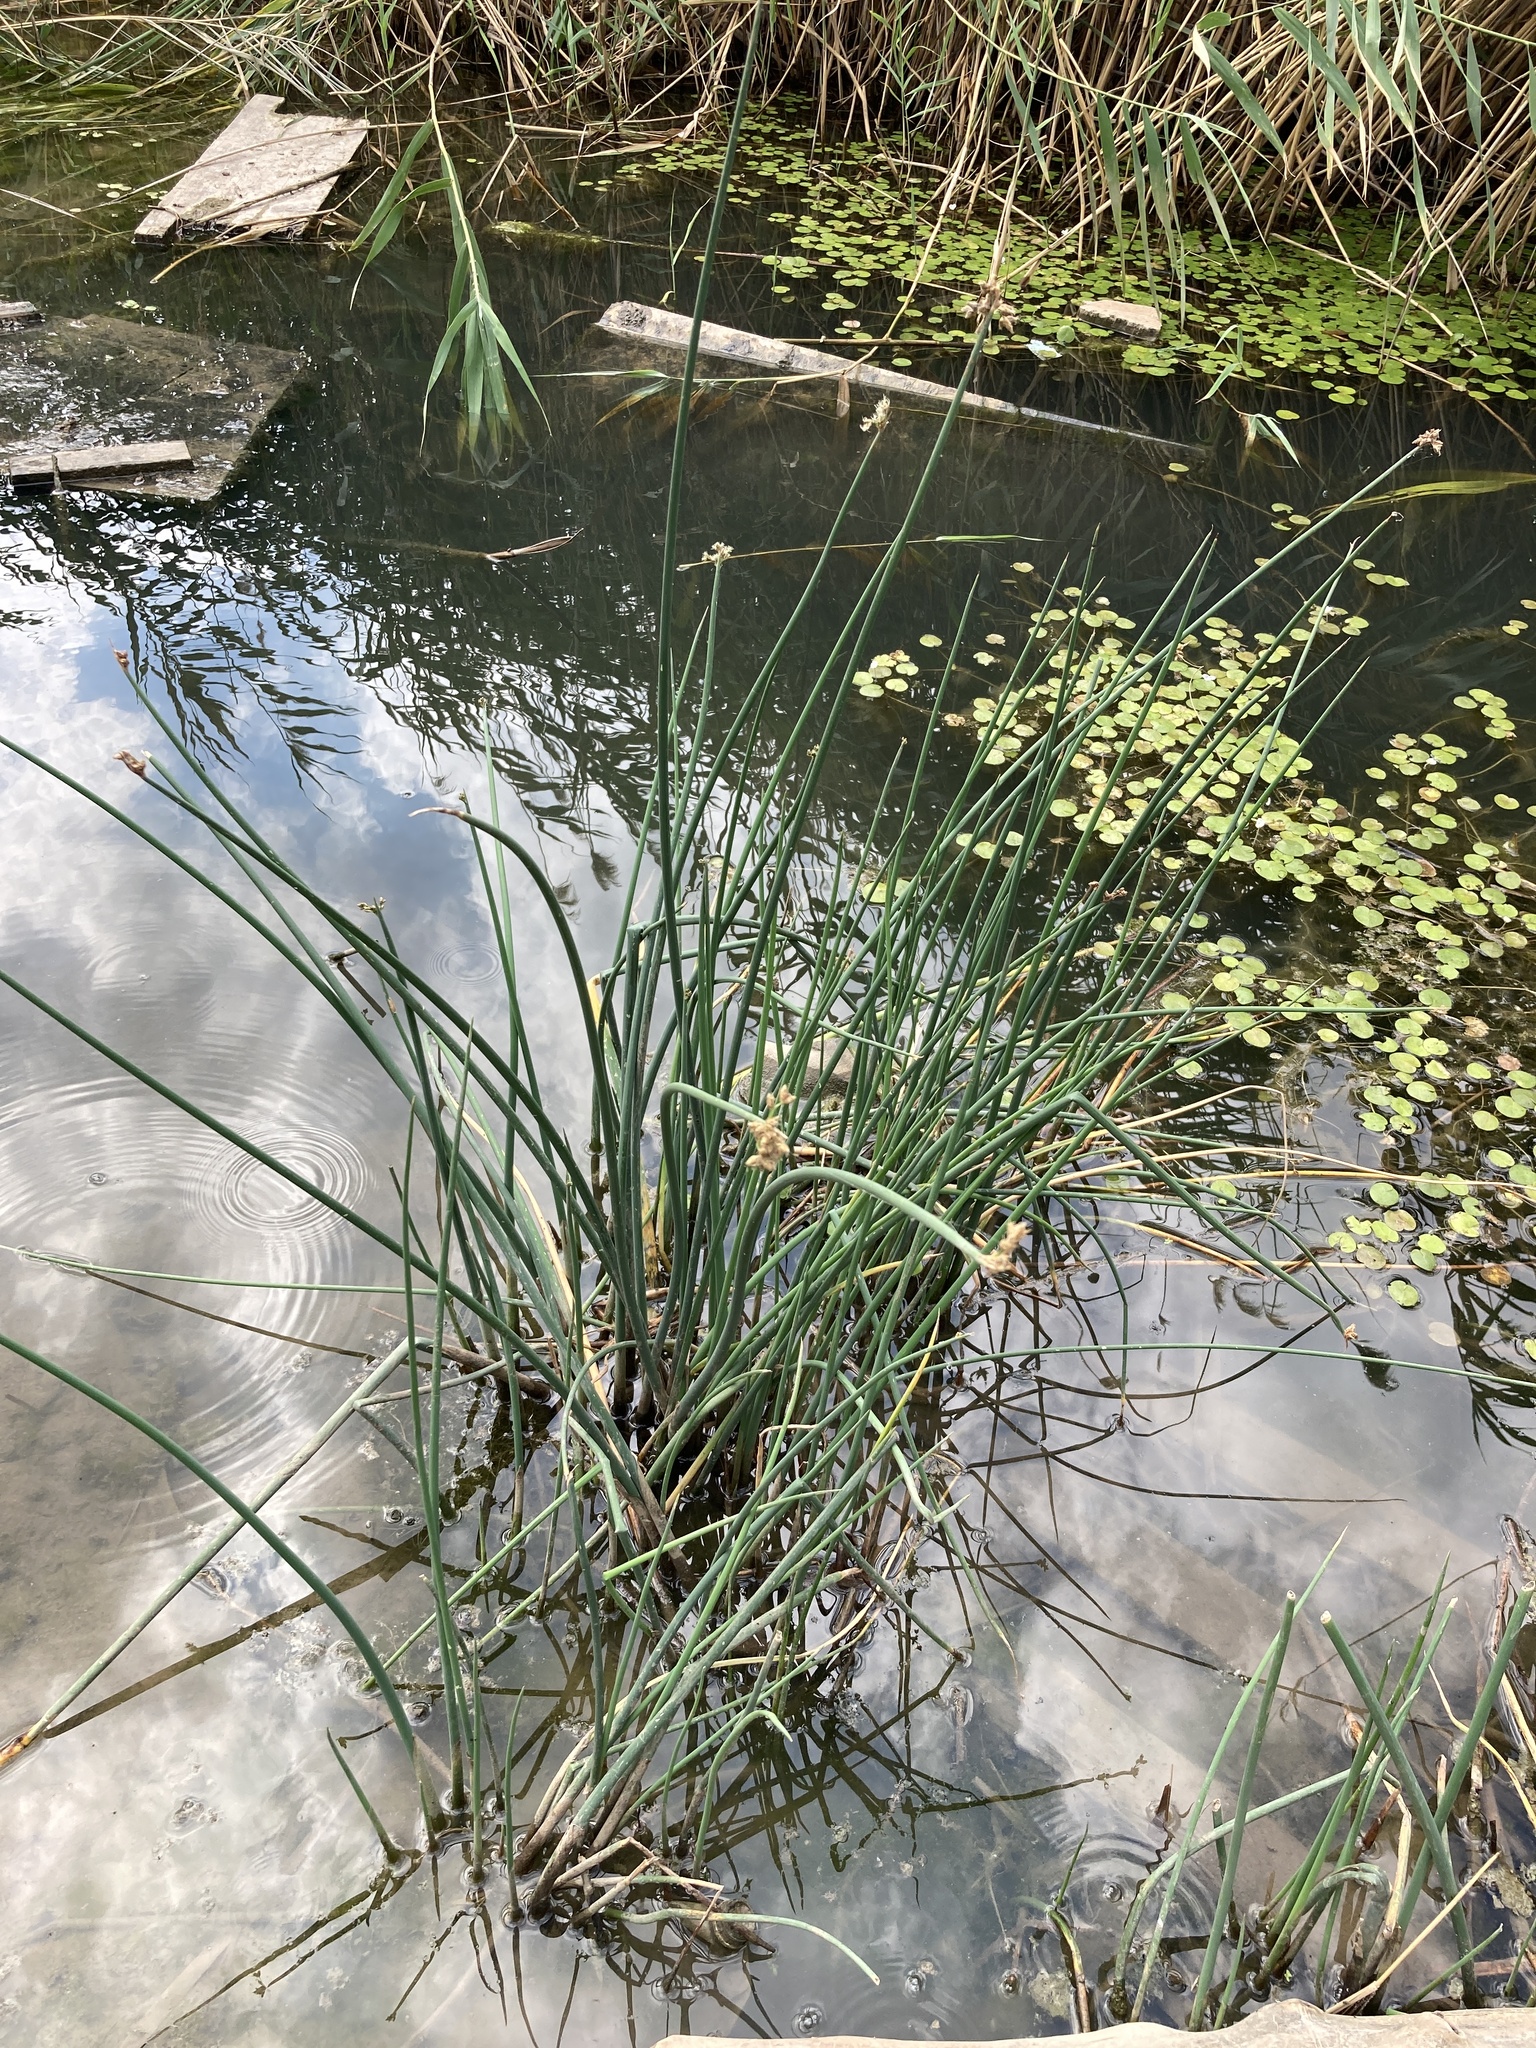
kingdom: Plantae
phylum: Tracheophyta
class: Liliopsida
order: Poales
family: Cyperaceae
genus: Schoenoplectus
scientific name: Schoenoplectus lacustris
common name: Common club-rush
